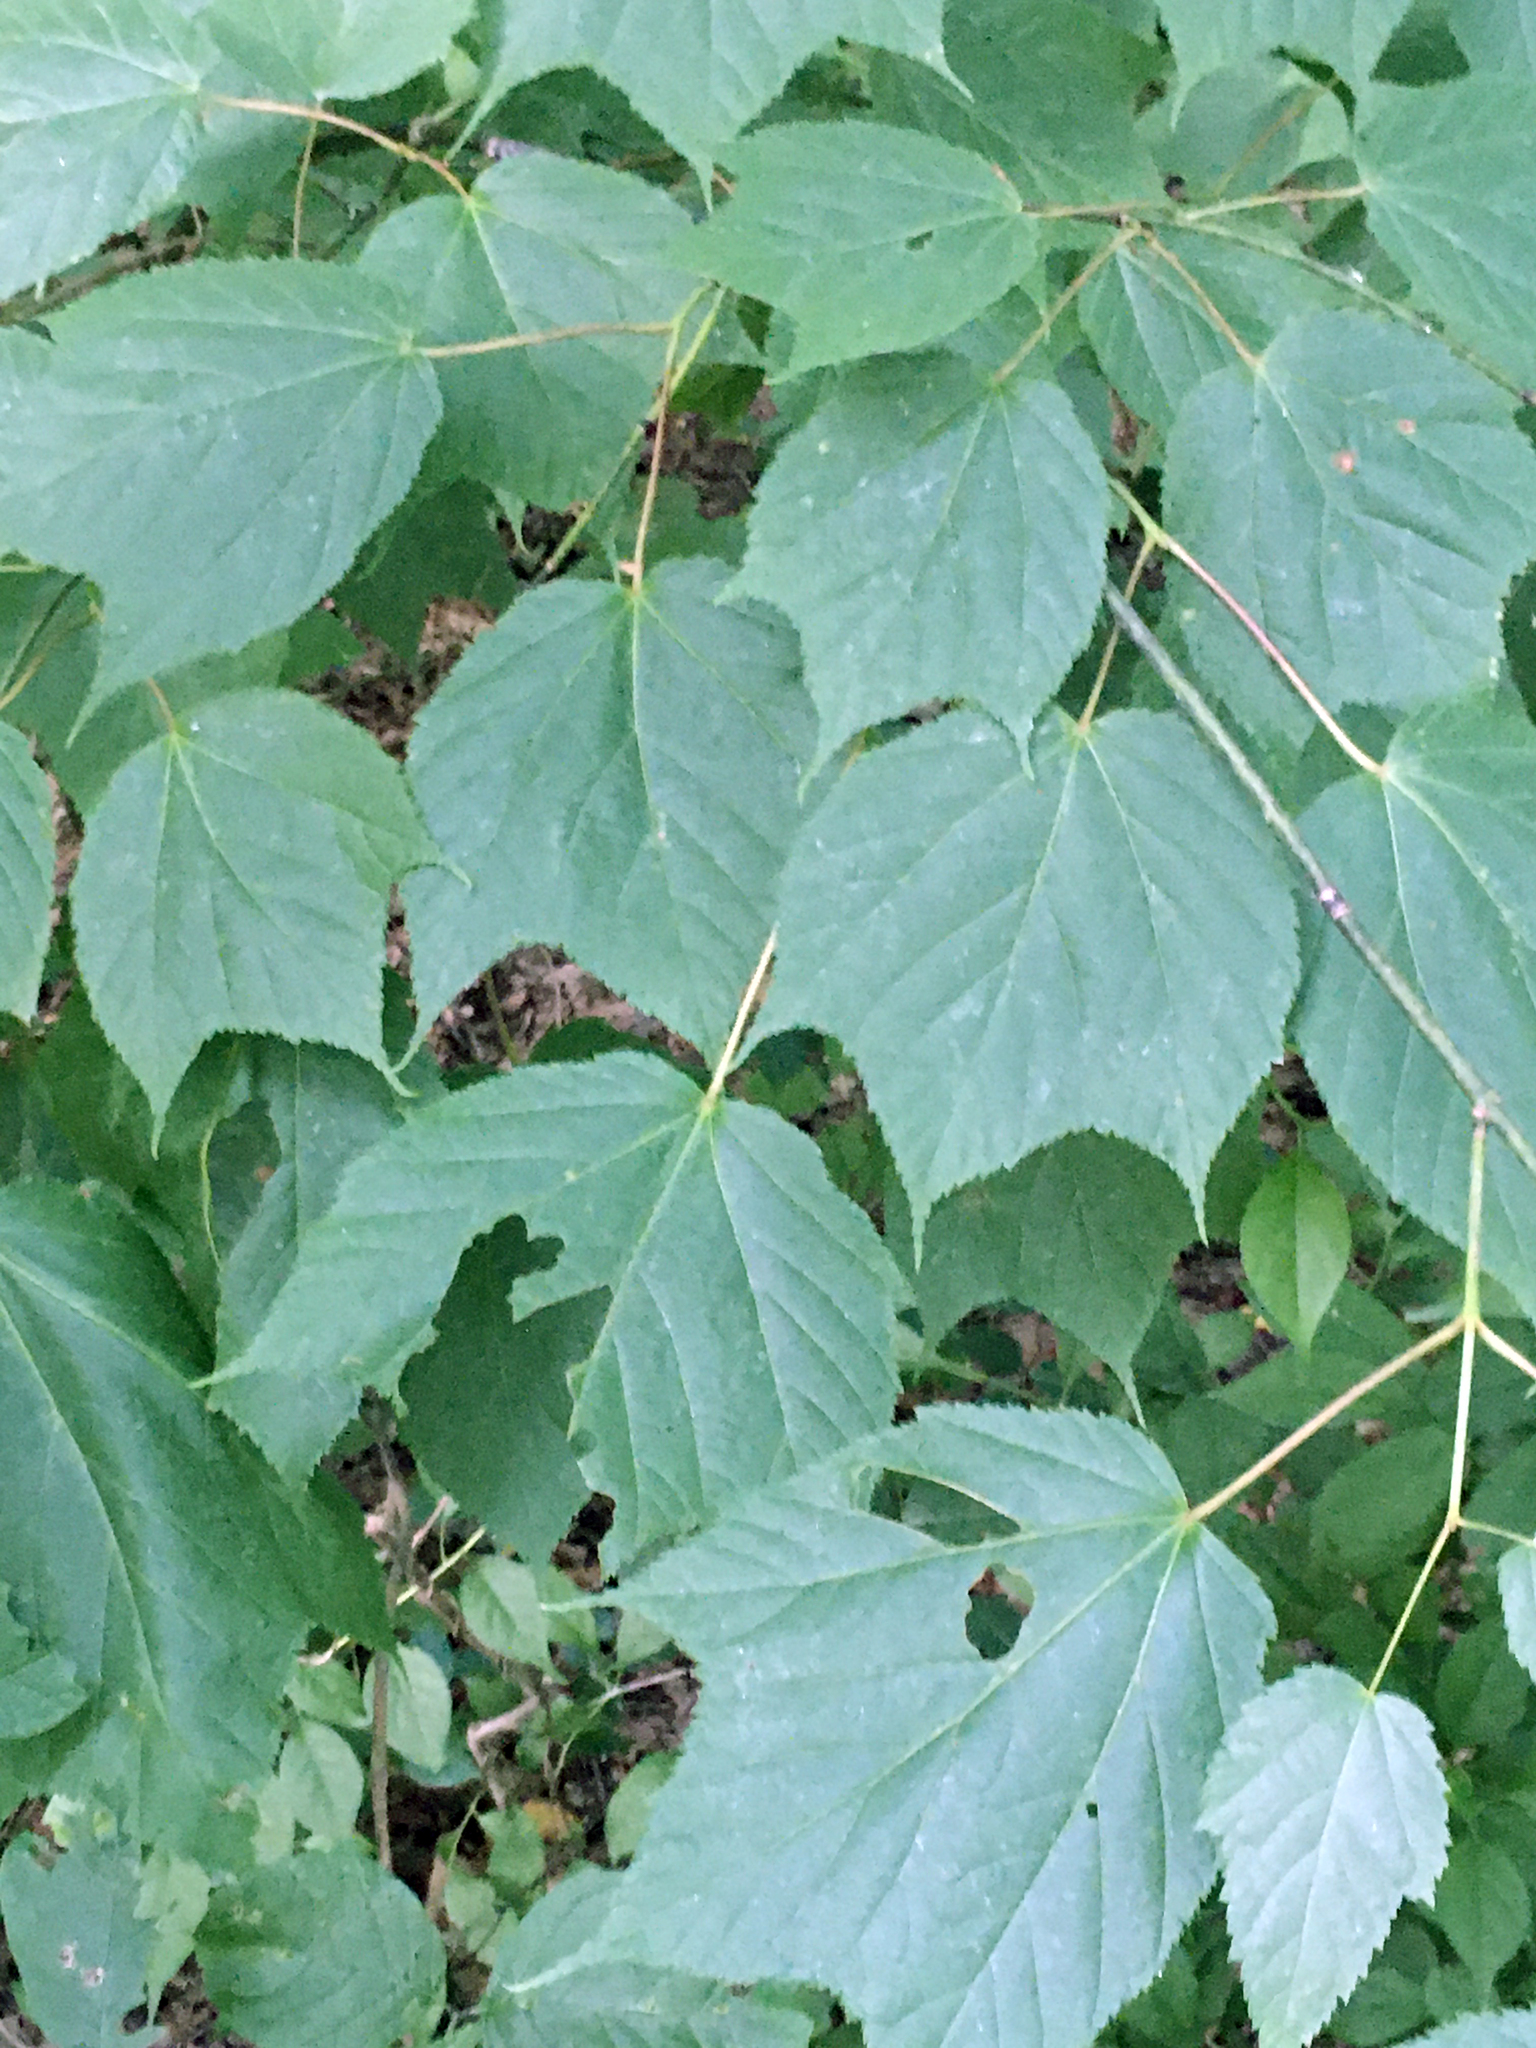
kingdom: Plantae
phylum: Tracheophyta
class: Magnoliopsida
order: Sapindales
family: Sapindaceae
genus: Acer
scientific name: Acer pensylvanicum
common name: Moosewood
